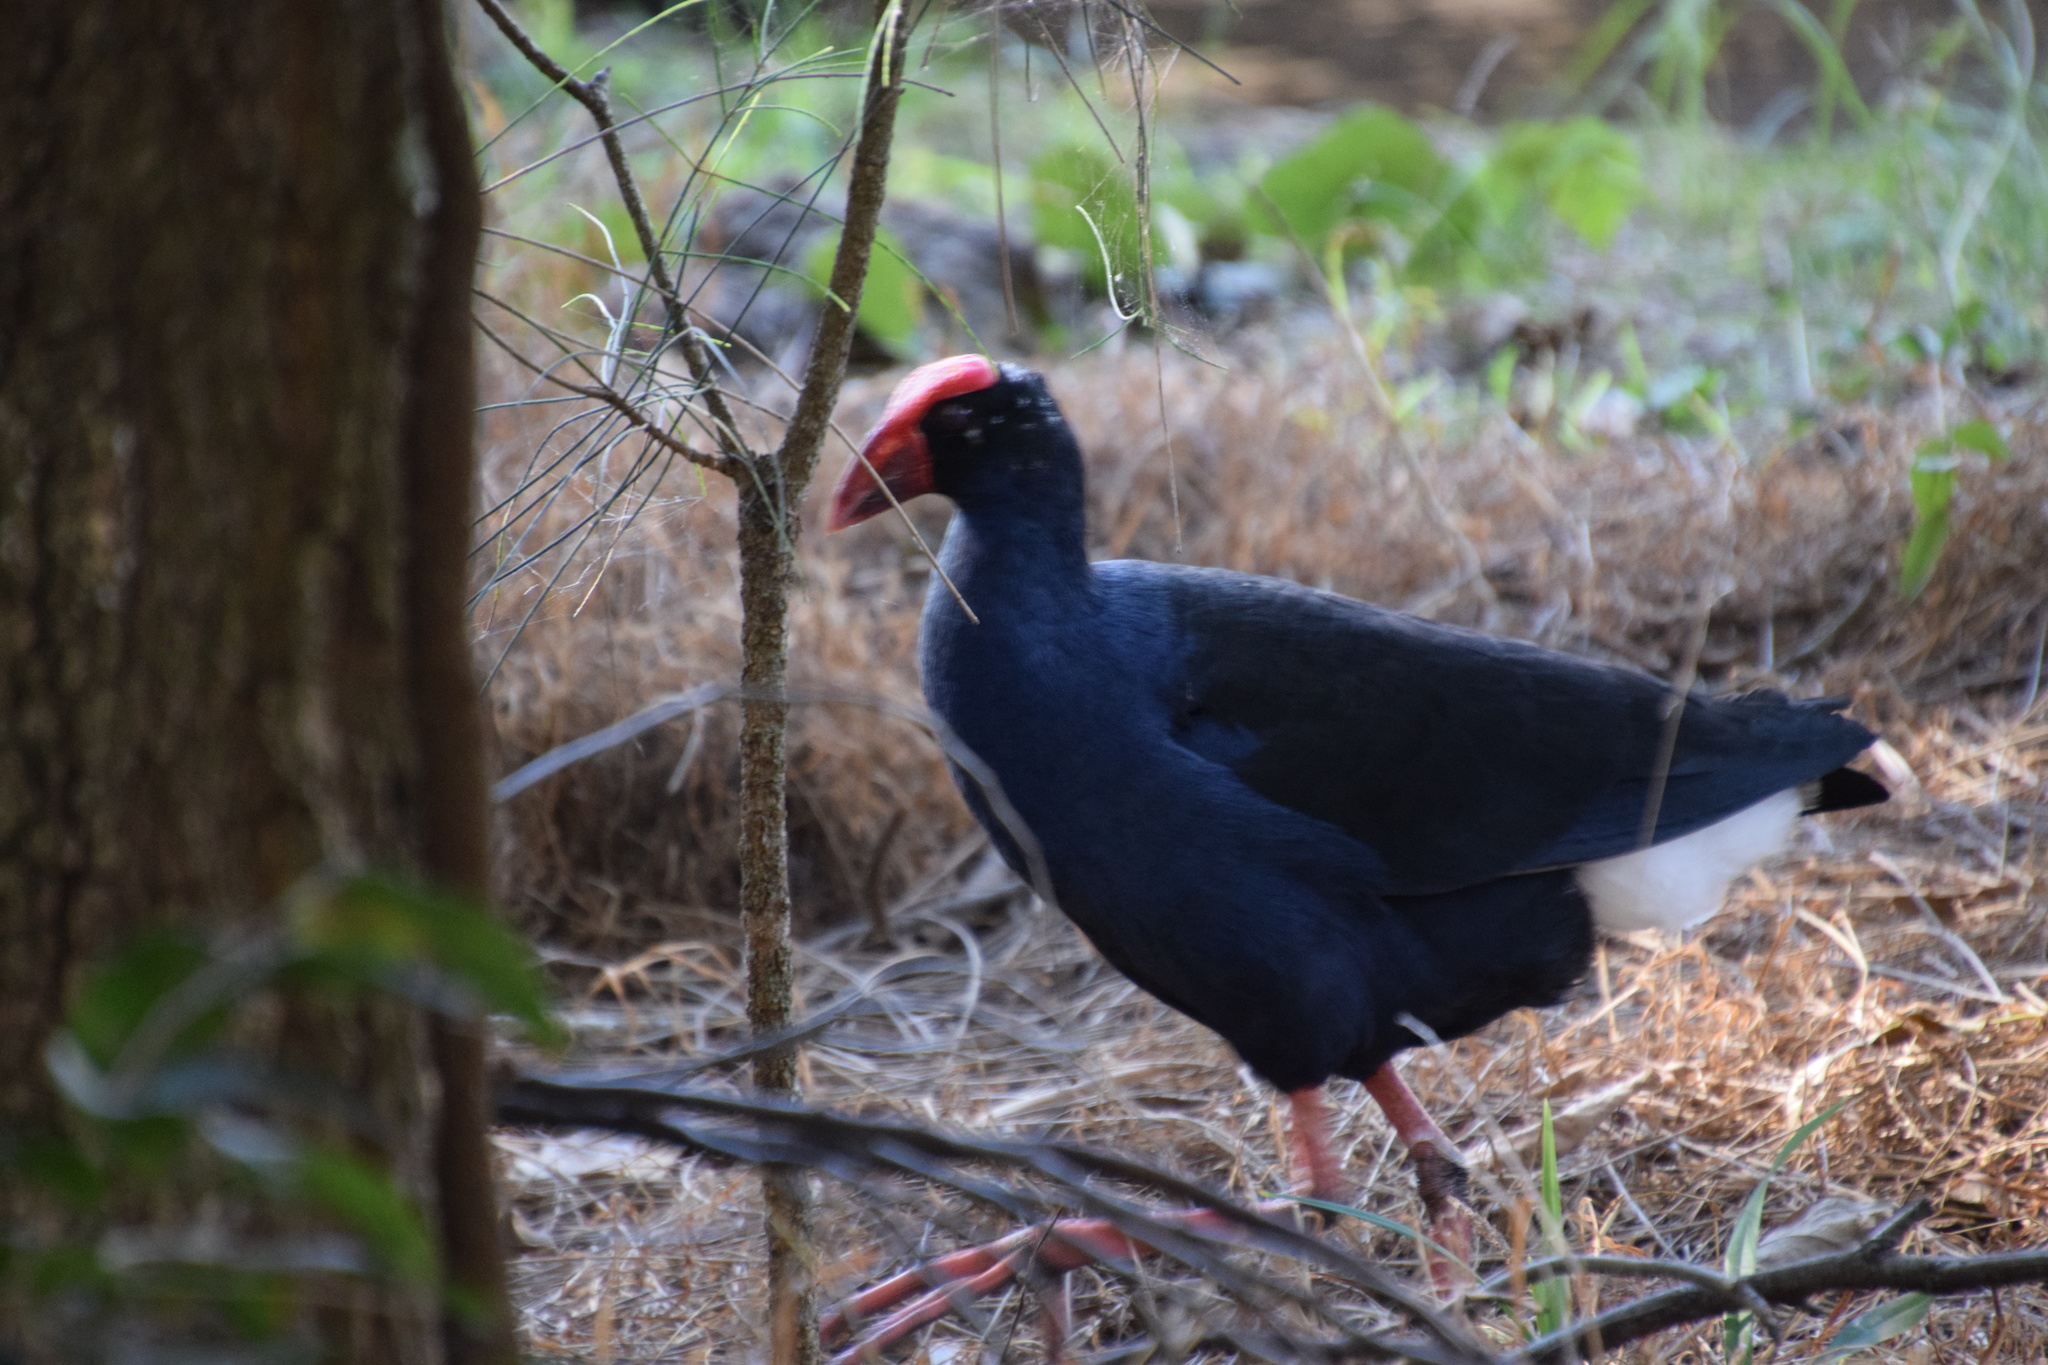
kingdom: Animalia
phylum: Chordata
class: Aves
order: Gruiformes
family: Rallidae
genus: Porphyrio
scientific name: Porphyrio melanotus
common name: Australasian swamphen
